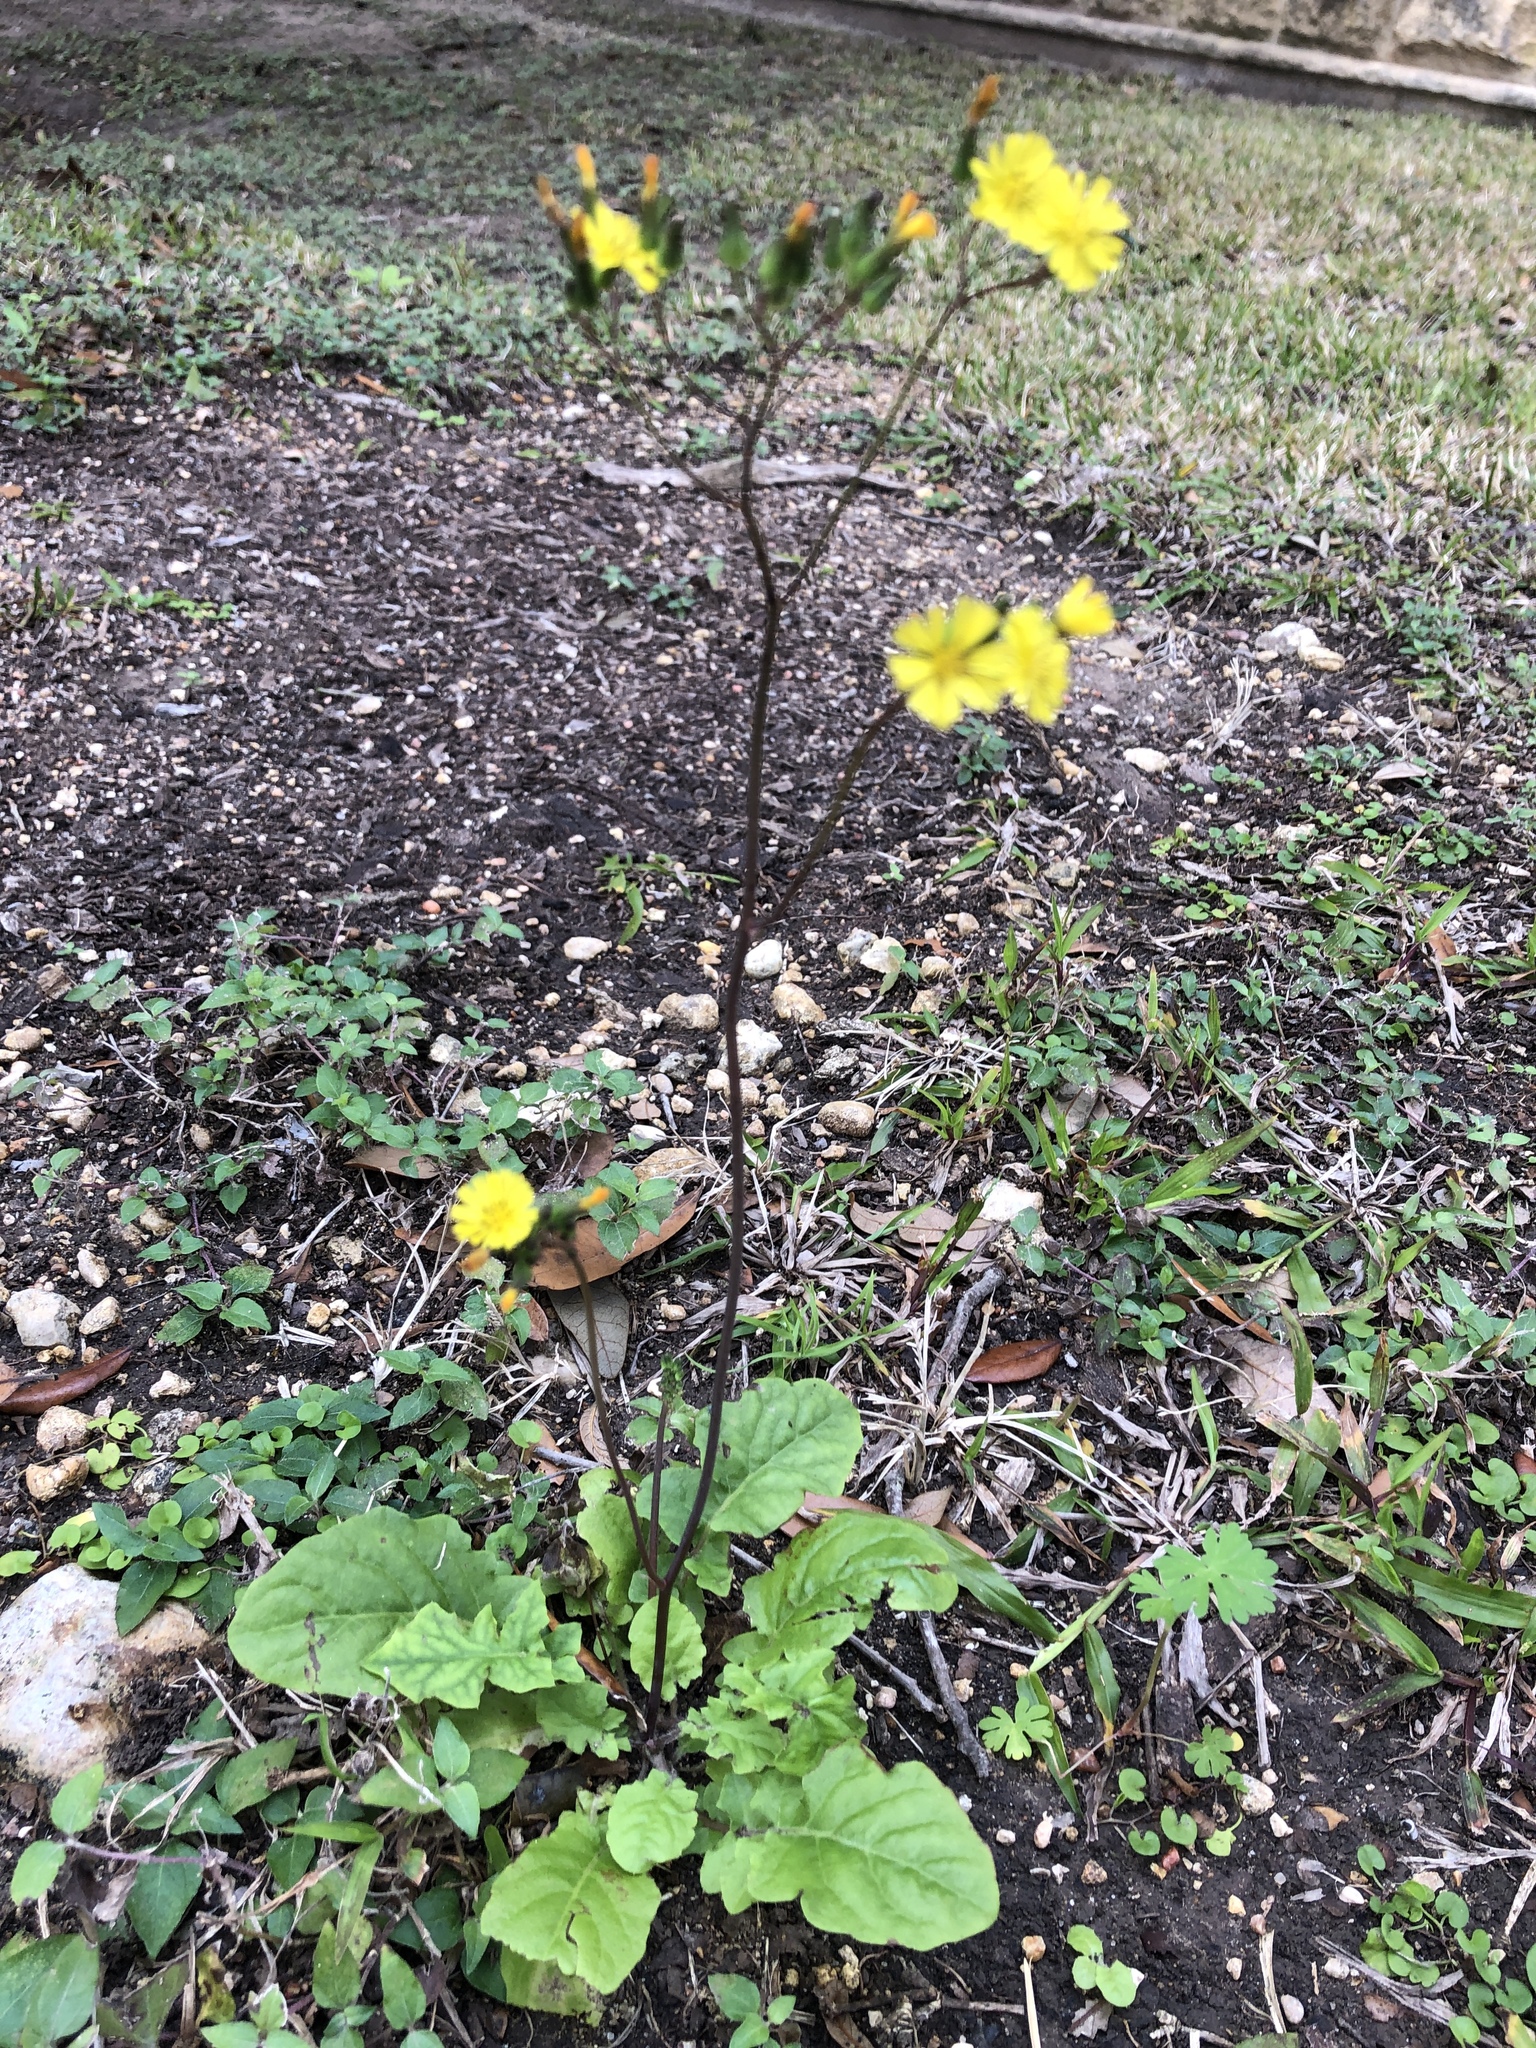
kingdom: Plantae
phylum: Tracheophyta
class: Magnoliopsida
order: Asterales
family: Asteraceae
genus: Youngia
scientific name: Youngia japonica
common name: Oriental false hawksbeard
